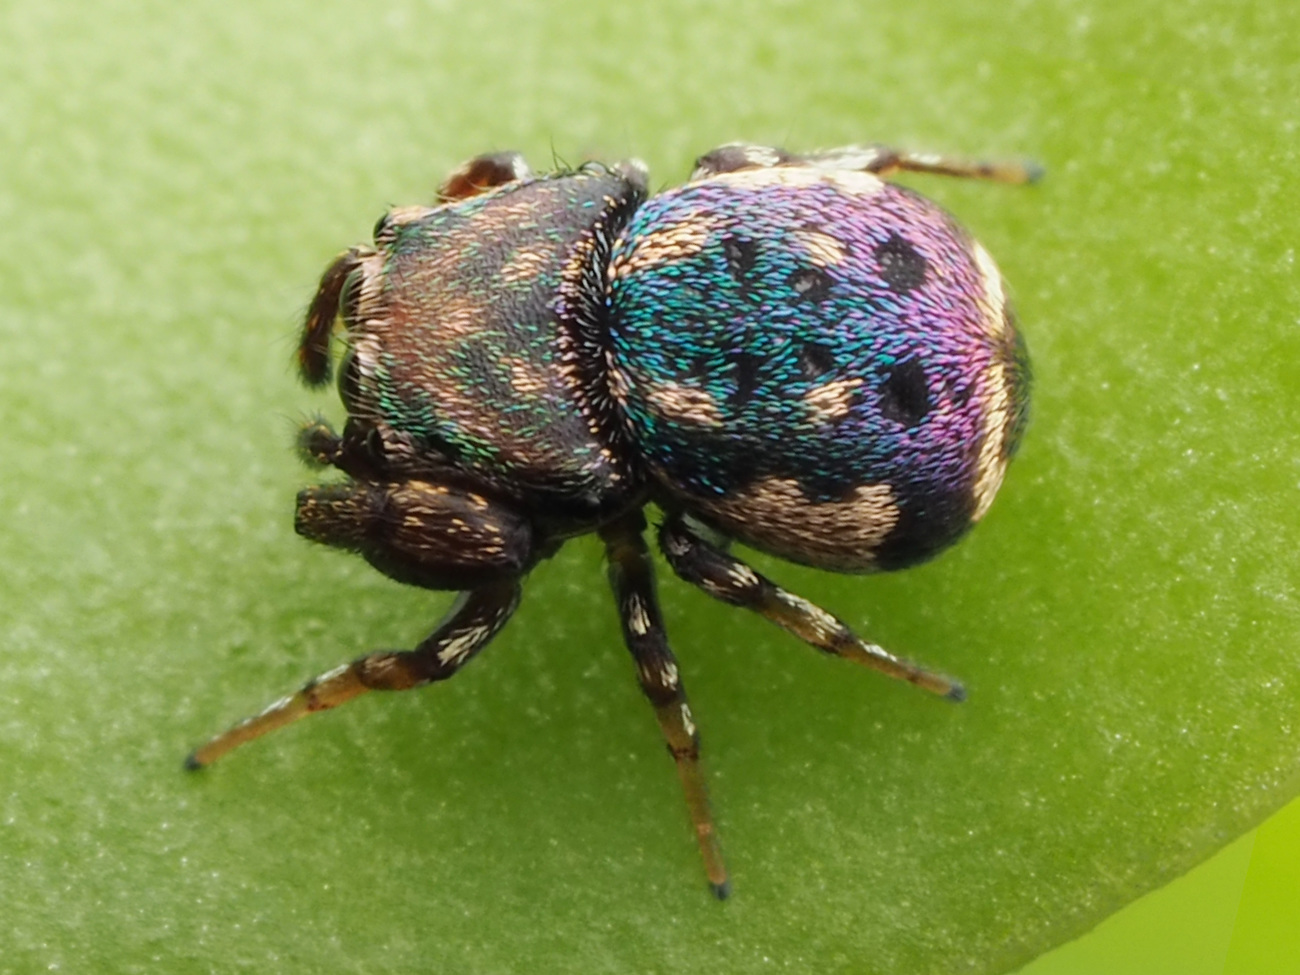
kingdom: Animalia
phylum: Arthropoda
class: Arachnida
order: Araneae
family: Salticidae
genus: Rhetenor
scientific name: Rhetenor texanus
